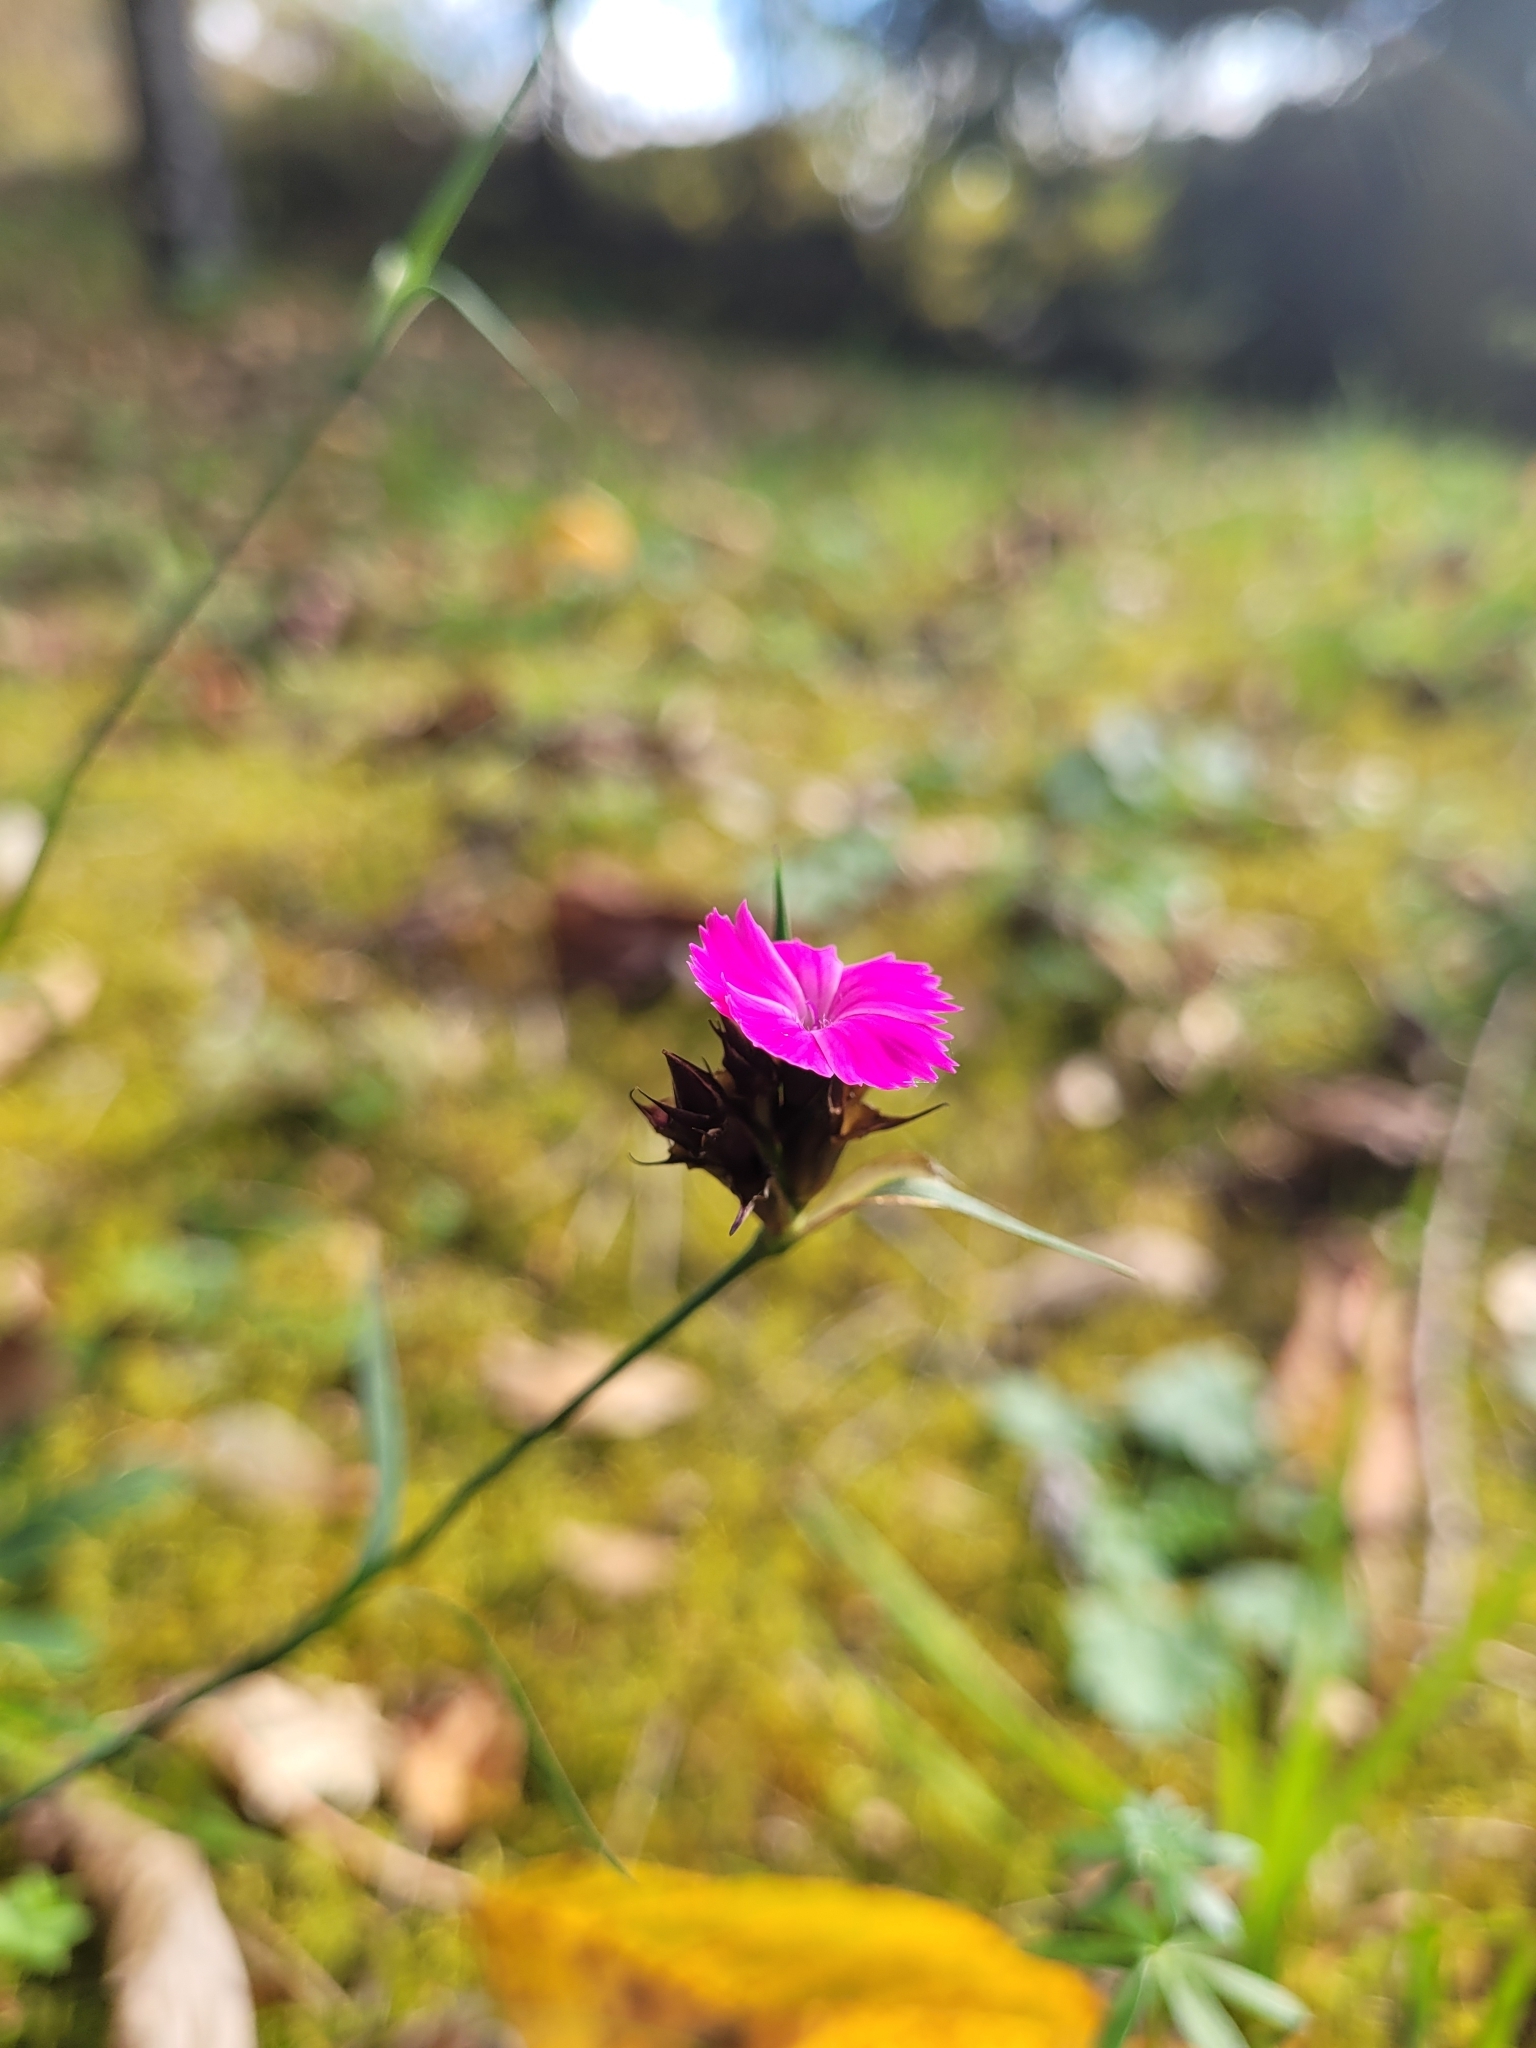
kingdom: Plantae
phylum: Tracheophyta
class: Magnoliopsida
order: Caryophyllales
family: Caryophyllaceae
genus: Dianthus
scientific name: Dianthus carthusianorum
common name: Carthusian pink
